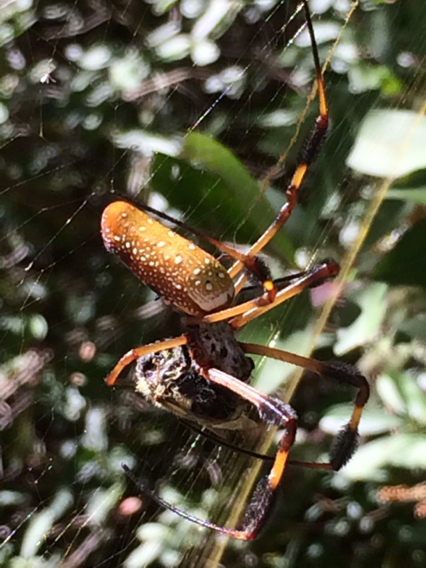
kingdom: Animalia
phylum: Arthropoda
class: Arachnida
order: Araneae
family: Araneidae
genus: Trichonephila
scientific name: Trichonephila clavipes
